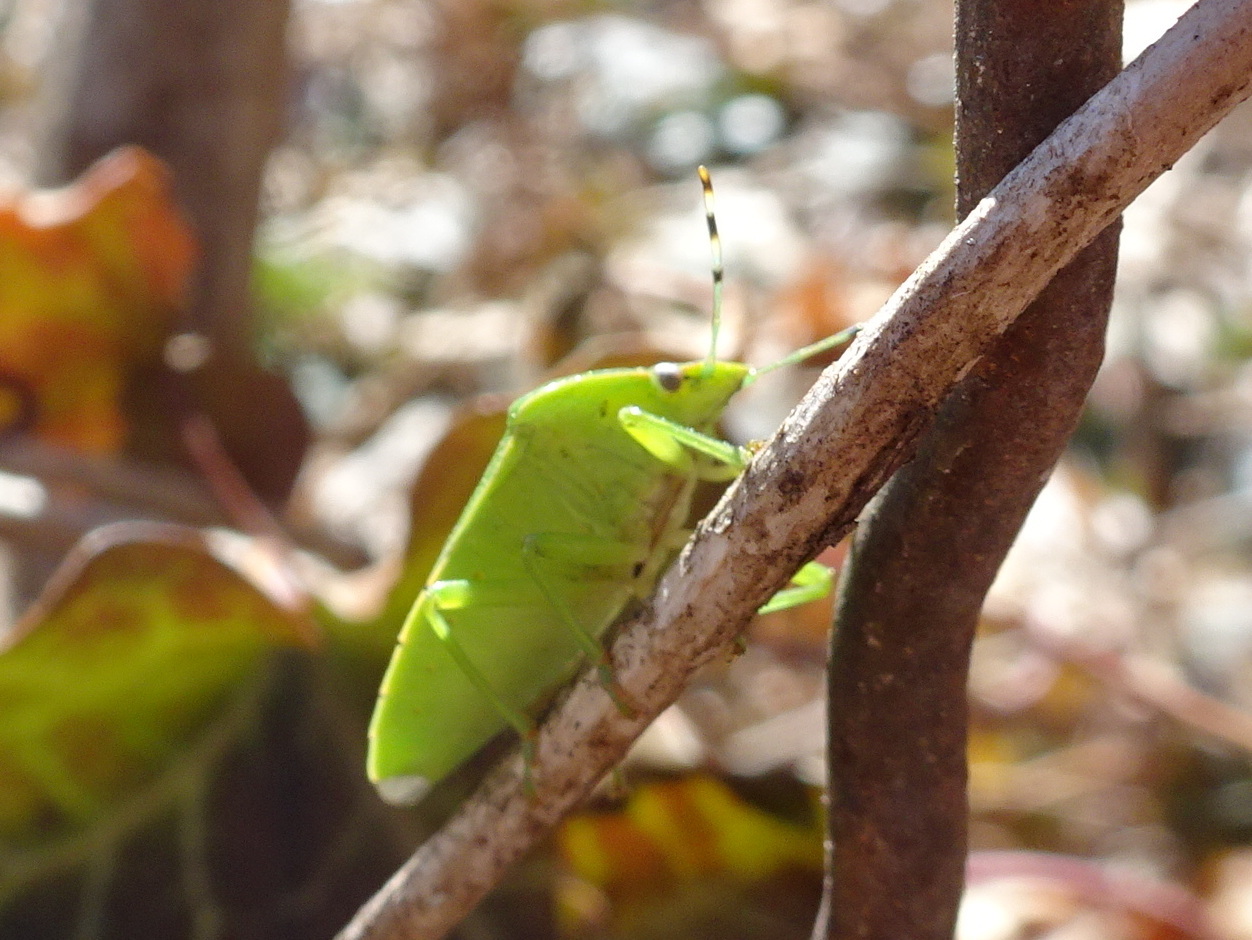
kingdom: Animalia
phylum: Arthropoda
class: Insecta
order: Hemiptera
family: Pentatomidae
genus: Chinavia
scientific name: Chinavia hilaris
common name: Green stink bug
